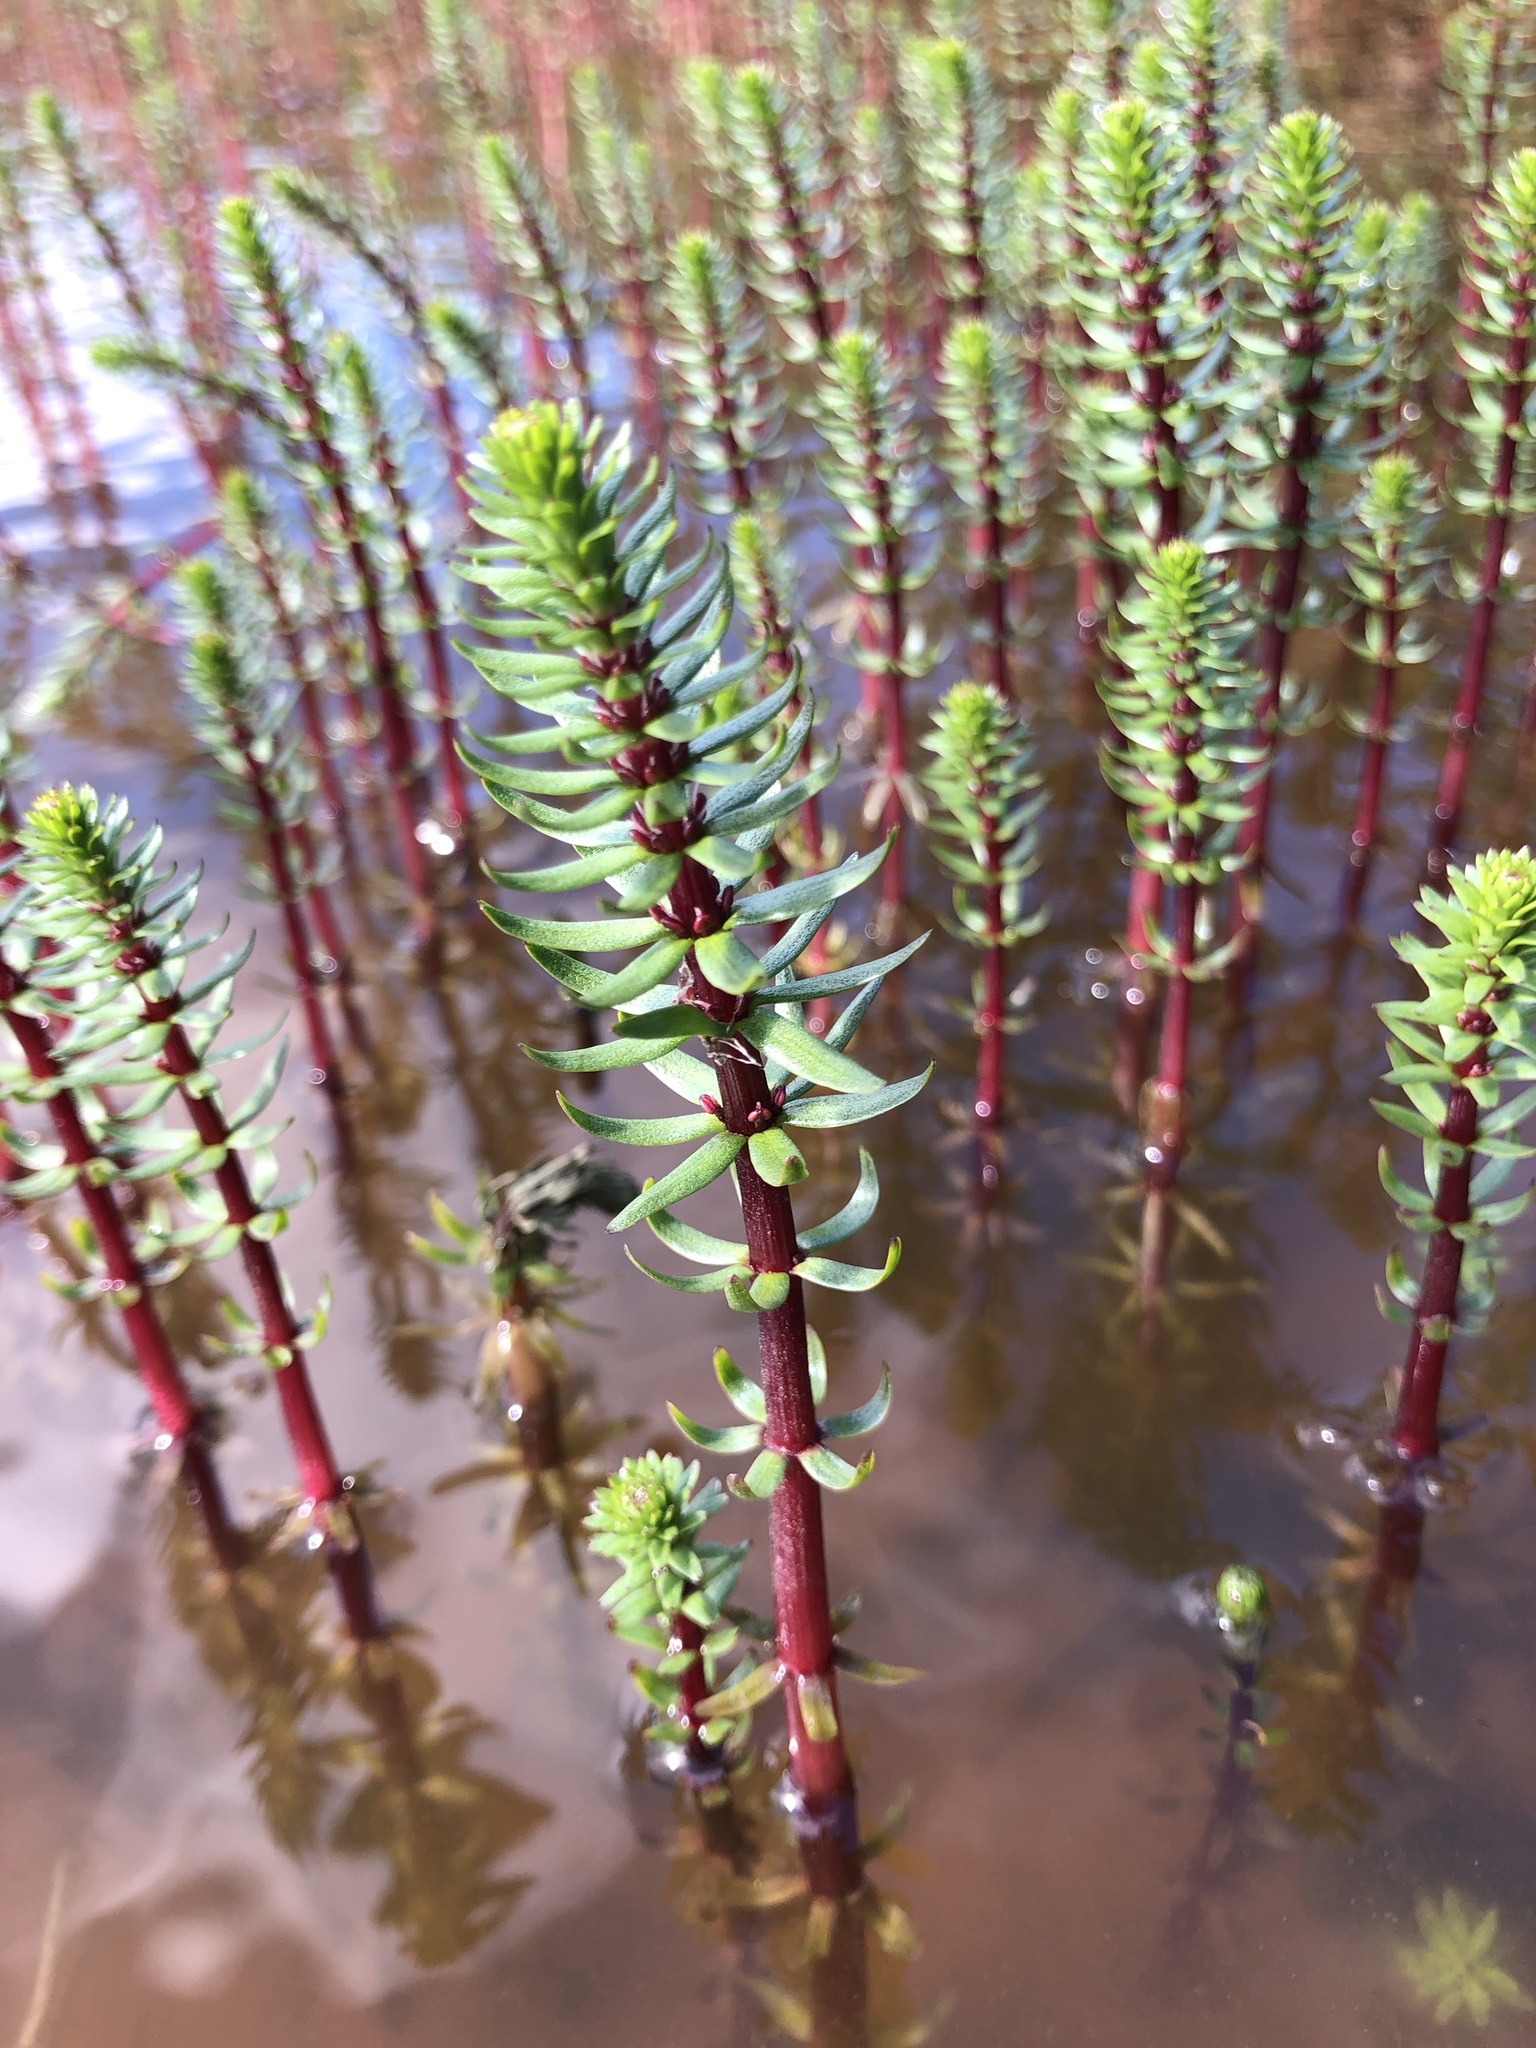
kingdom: Plantae
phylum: Tracheophyta
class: Magnoliopsida
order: Lamiales
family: Plantaginaceae
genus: Hippuris
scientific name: Hippuris vulgaris
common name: Mare's-tail
